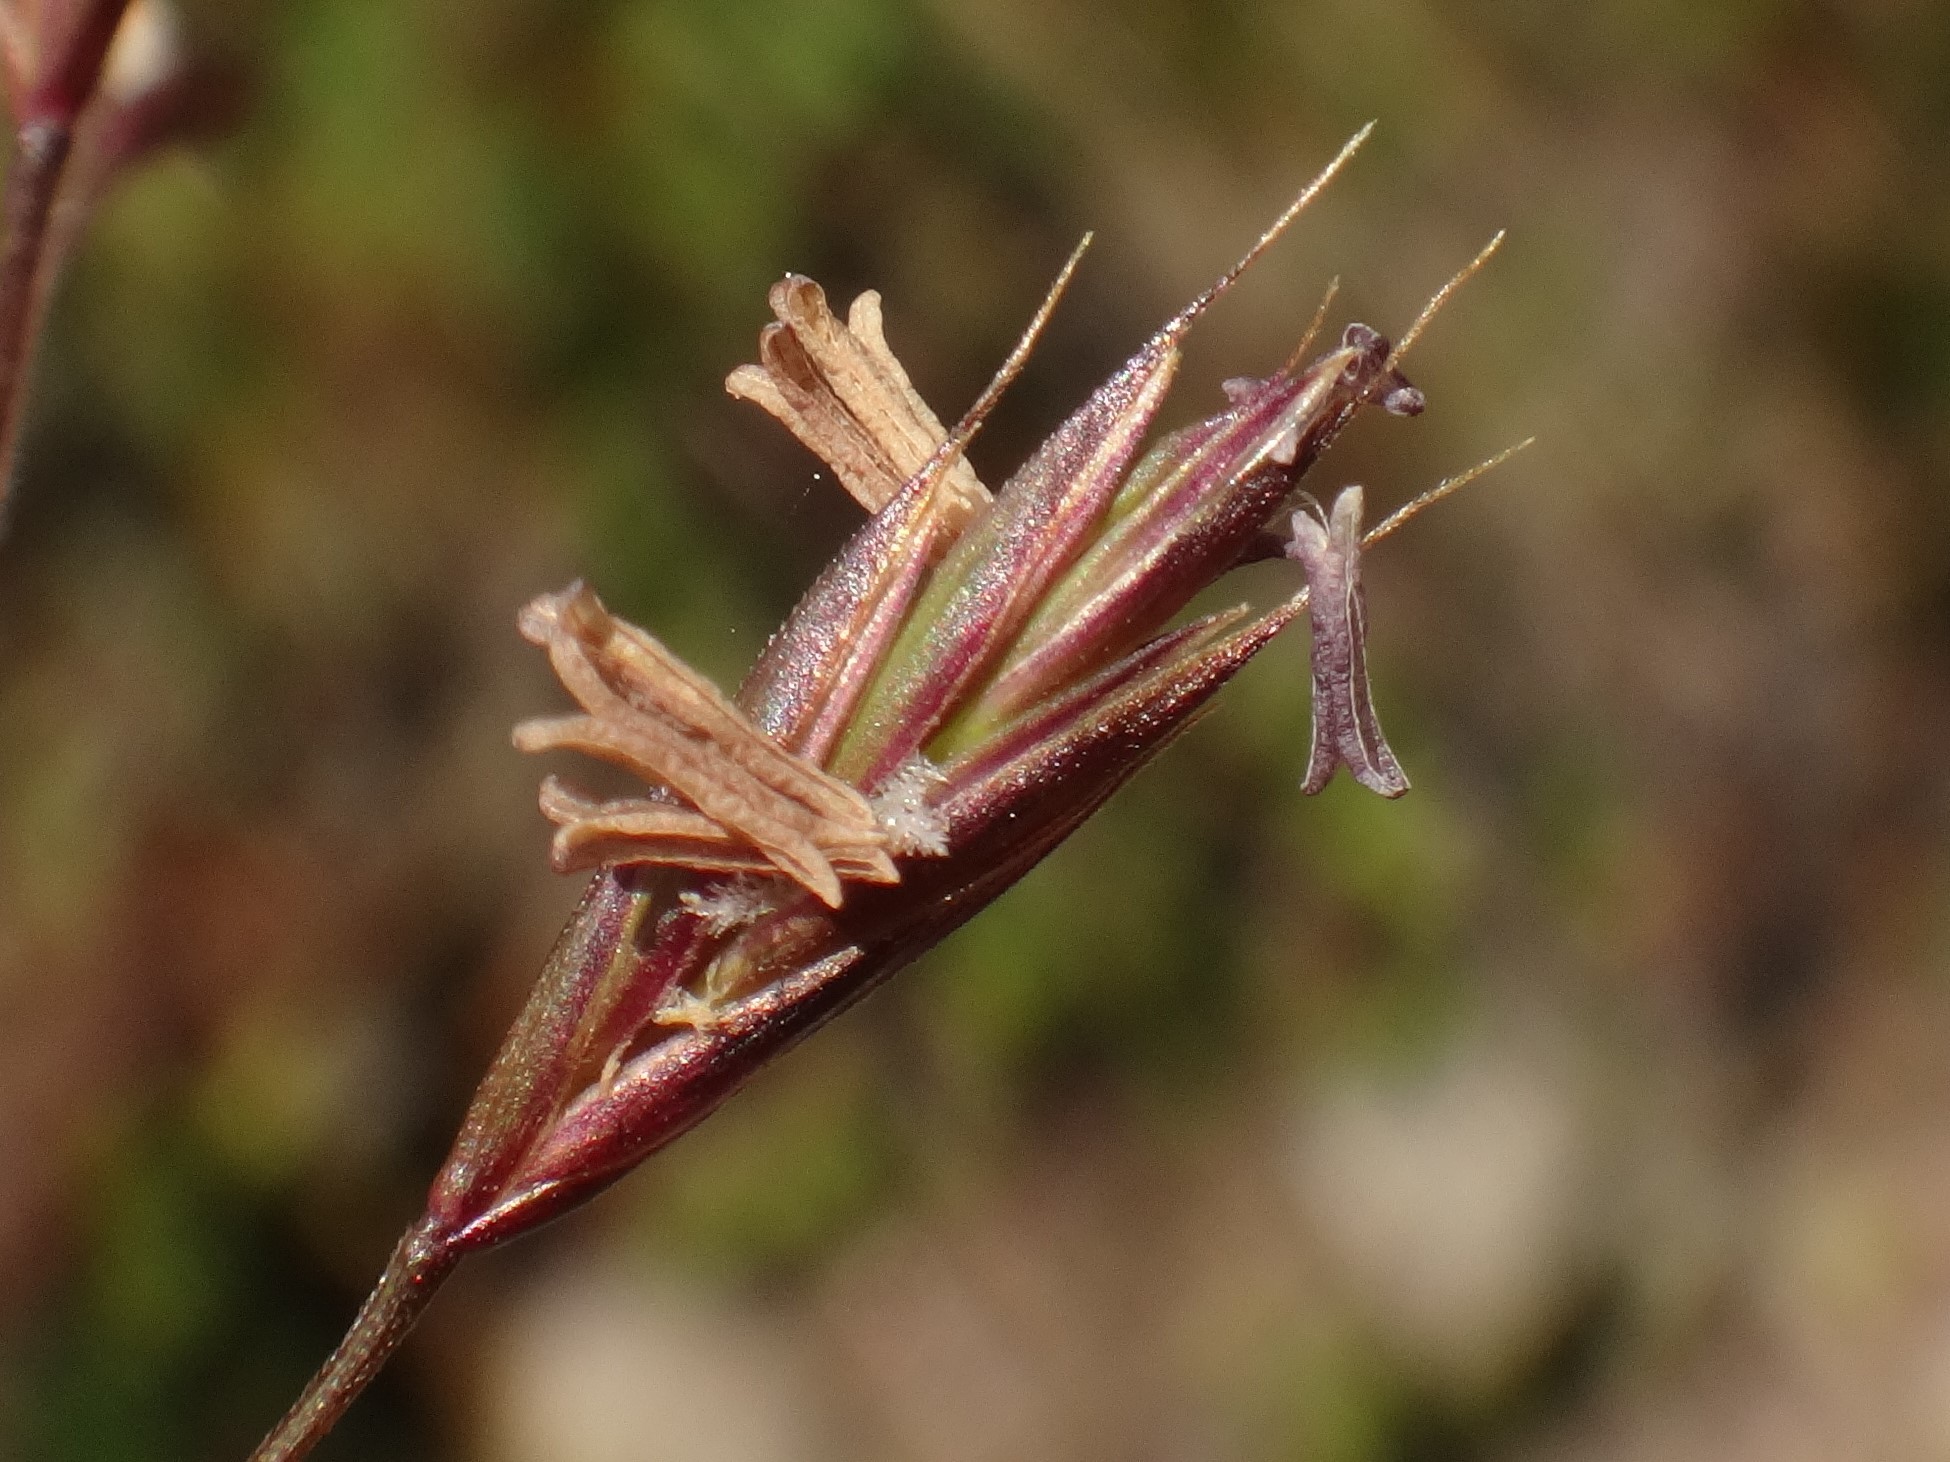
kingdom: Plantae
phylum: Tracheophyta
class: Liliopsida
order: Poales
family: Poaceae
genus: Festuca
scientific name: Festuca pseudodura
